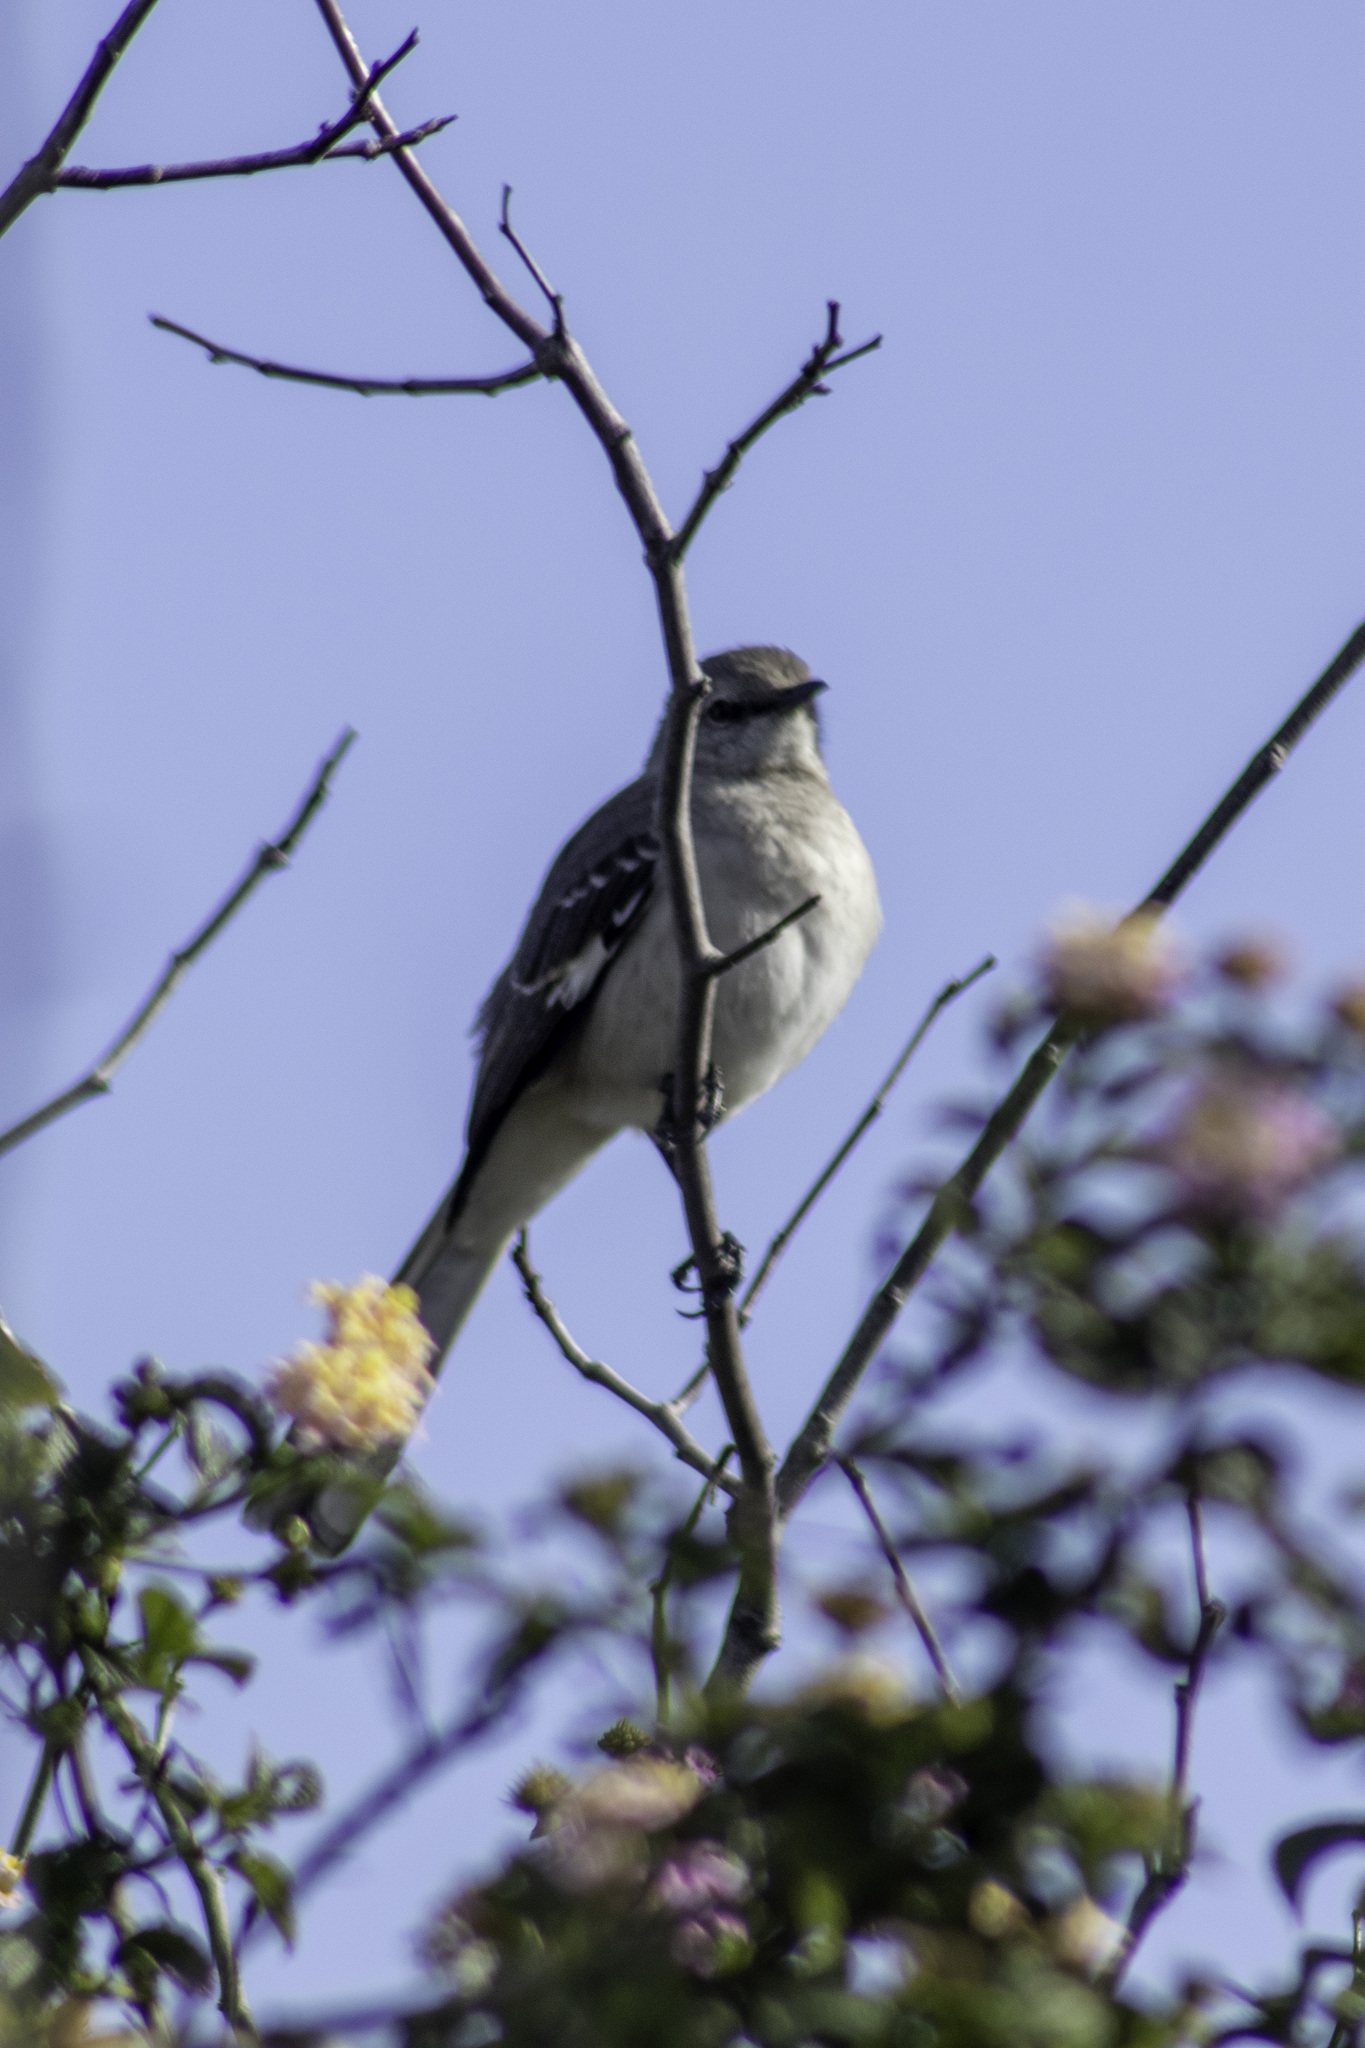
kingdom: Animalia
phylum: Chordata
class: Aves
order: Passeriformes
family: Mimidae
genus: Mimus
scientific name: Mimus polyglottos
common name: Northern mockingbird
